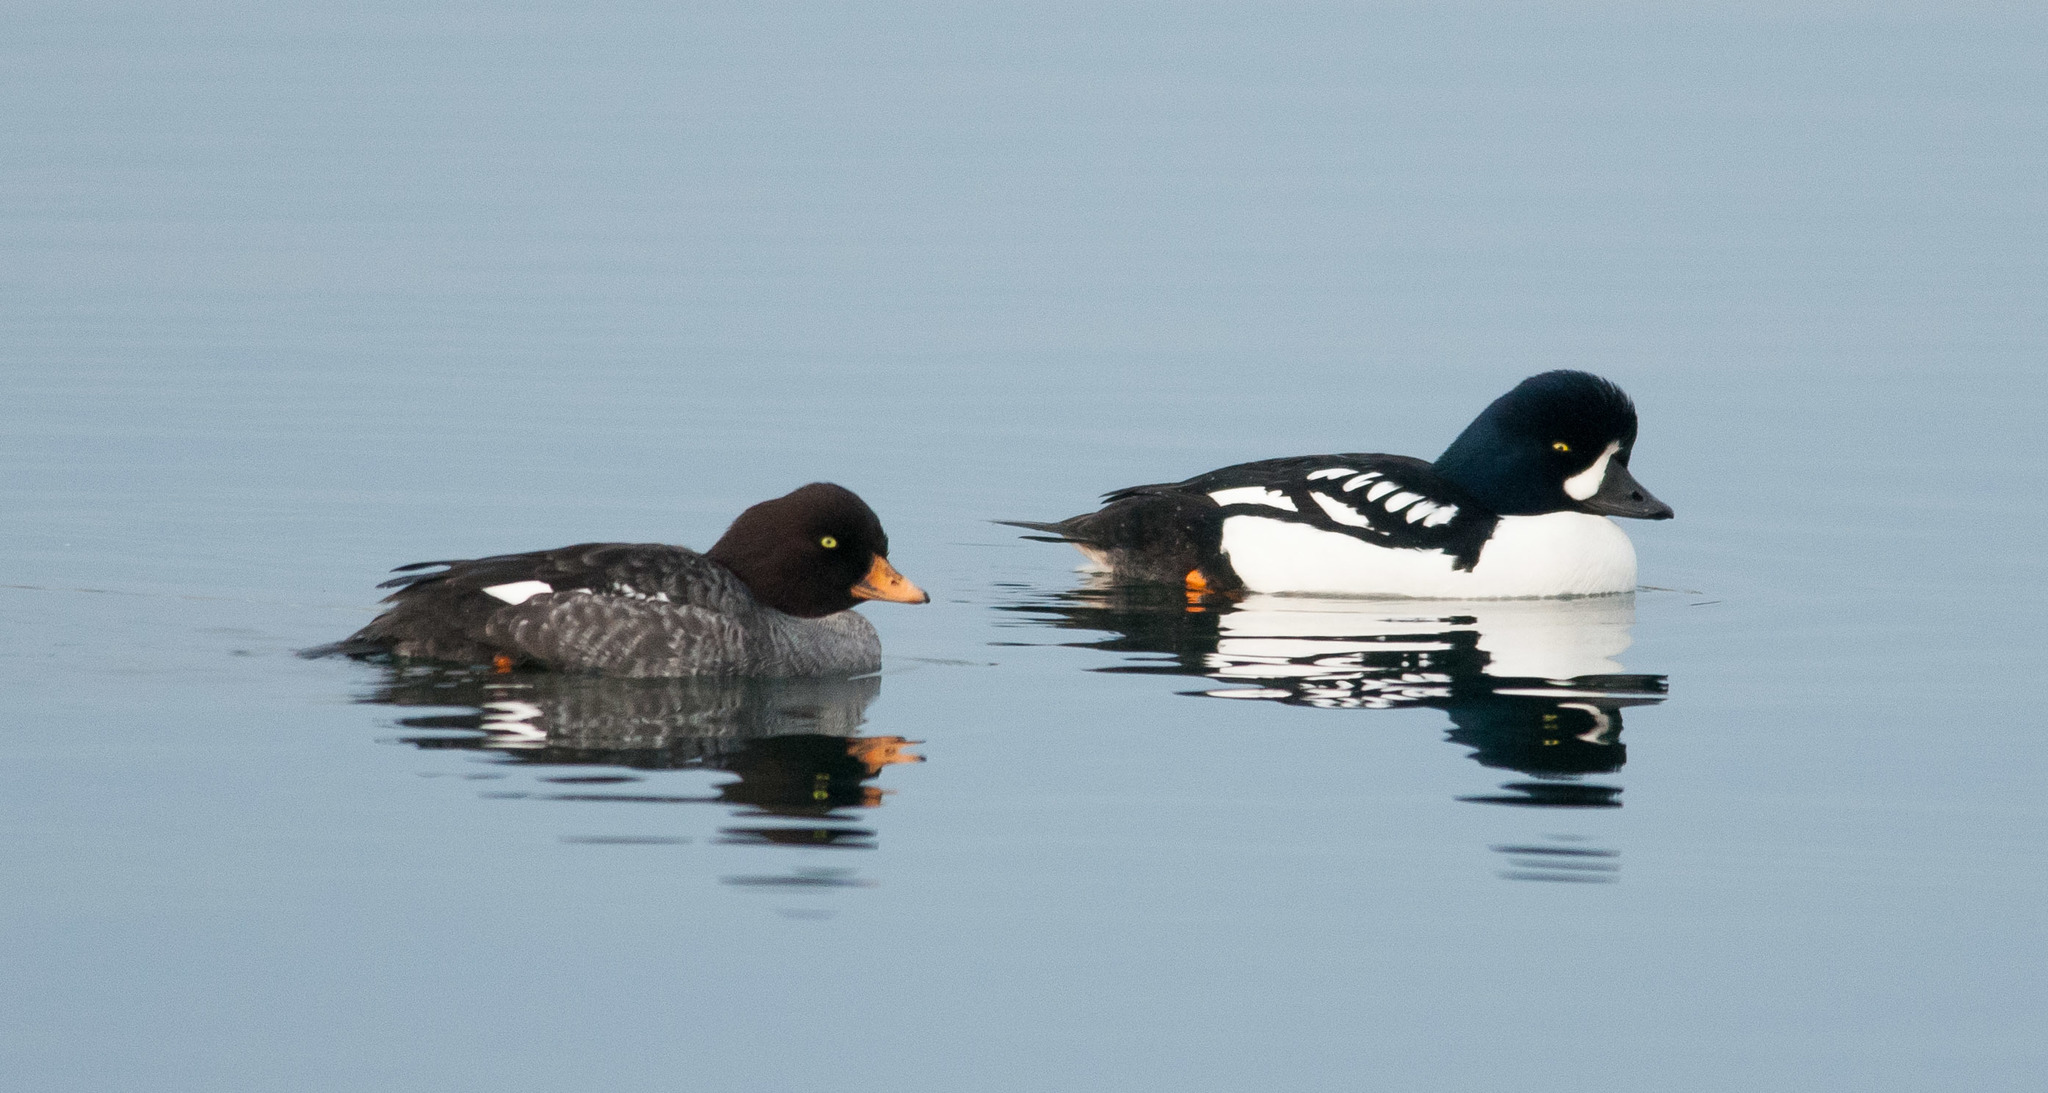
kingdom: Animalia
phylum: Chordata
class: Aves
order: Anseriformes
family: Anatidae
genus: Bucephala
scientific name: Bucephala islandica
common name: Barrow's goldeneye
